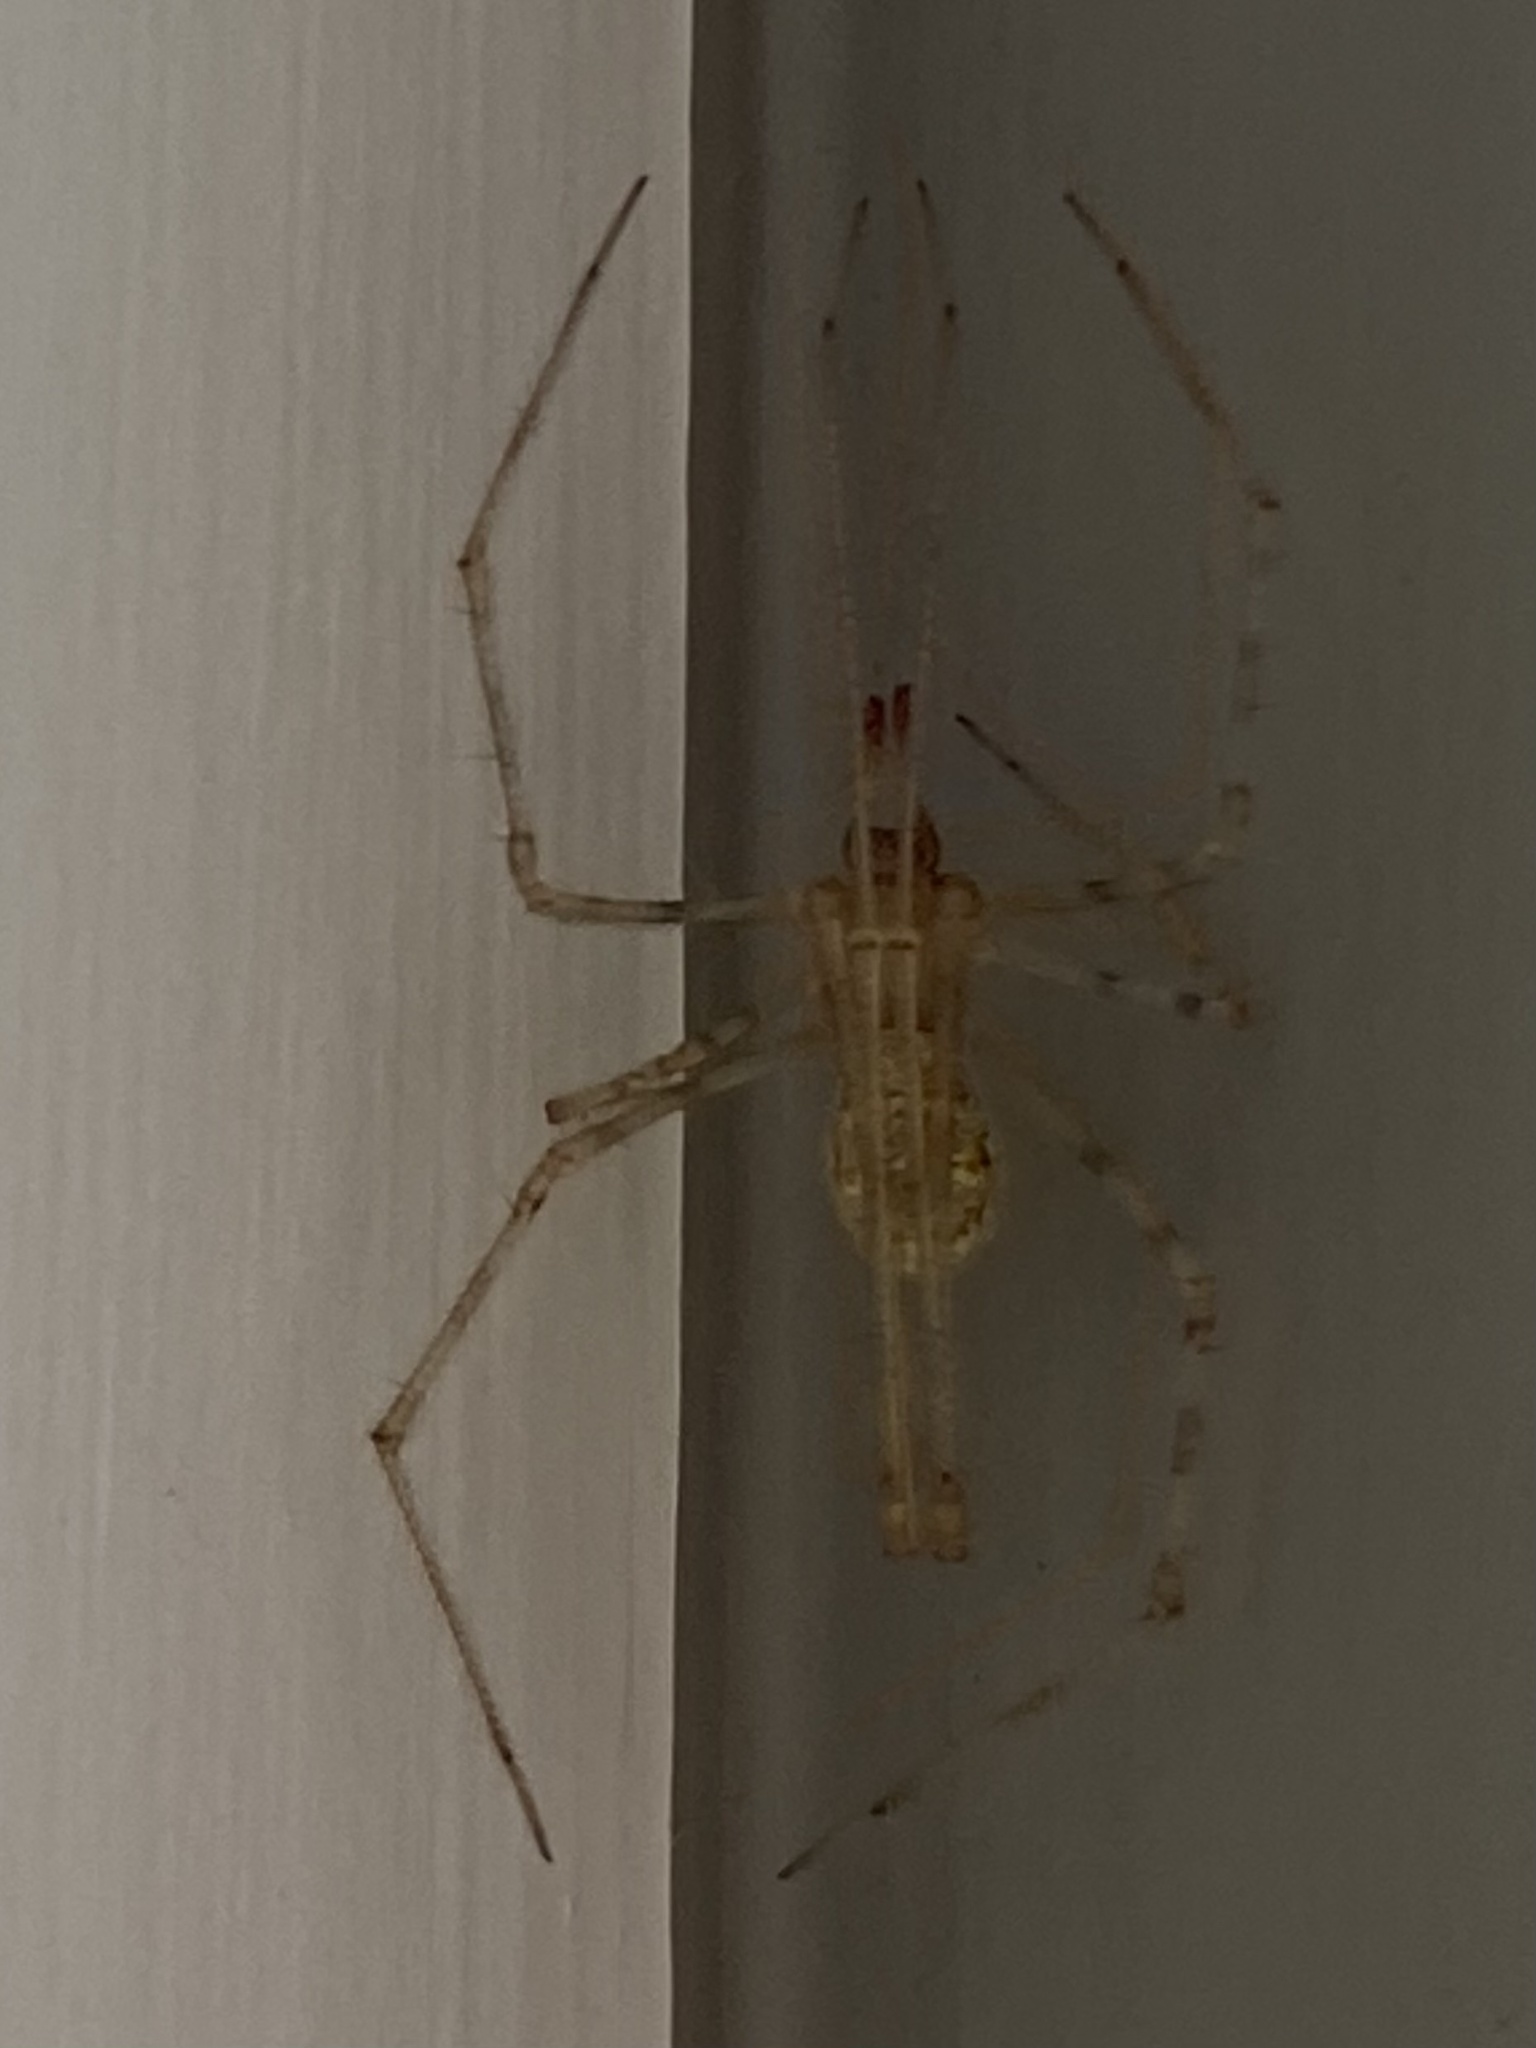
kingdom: Animalia
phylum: Arthropoda
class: Arachnida
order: Araneae
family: Theridiidae
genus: Cryptachaea
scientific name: Cryptachaea gigantipes
